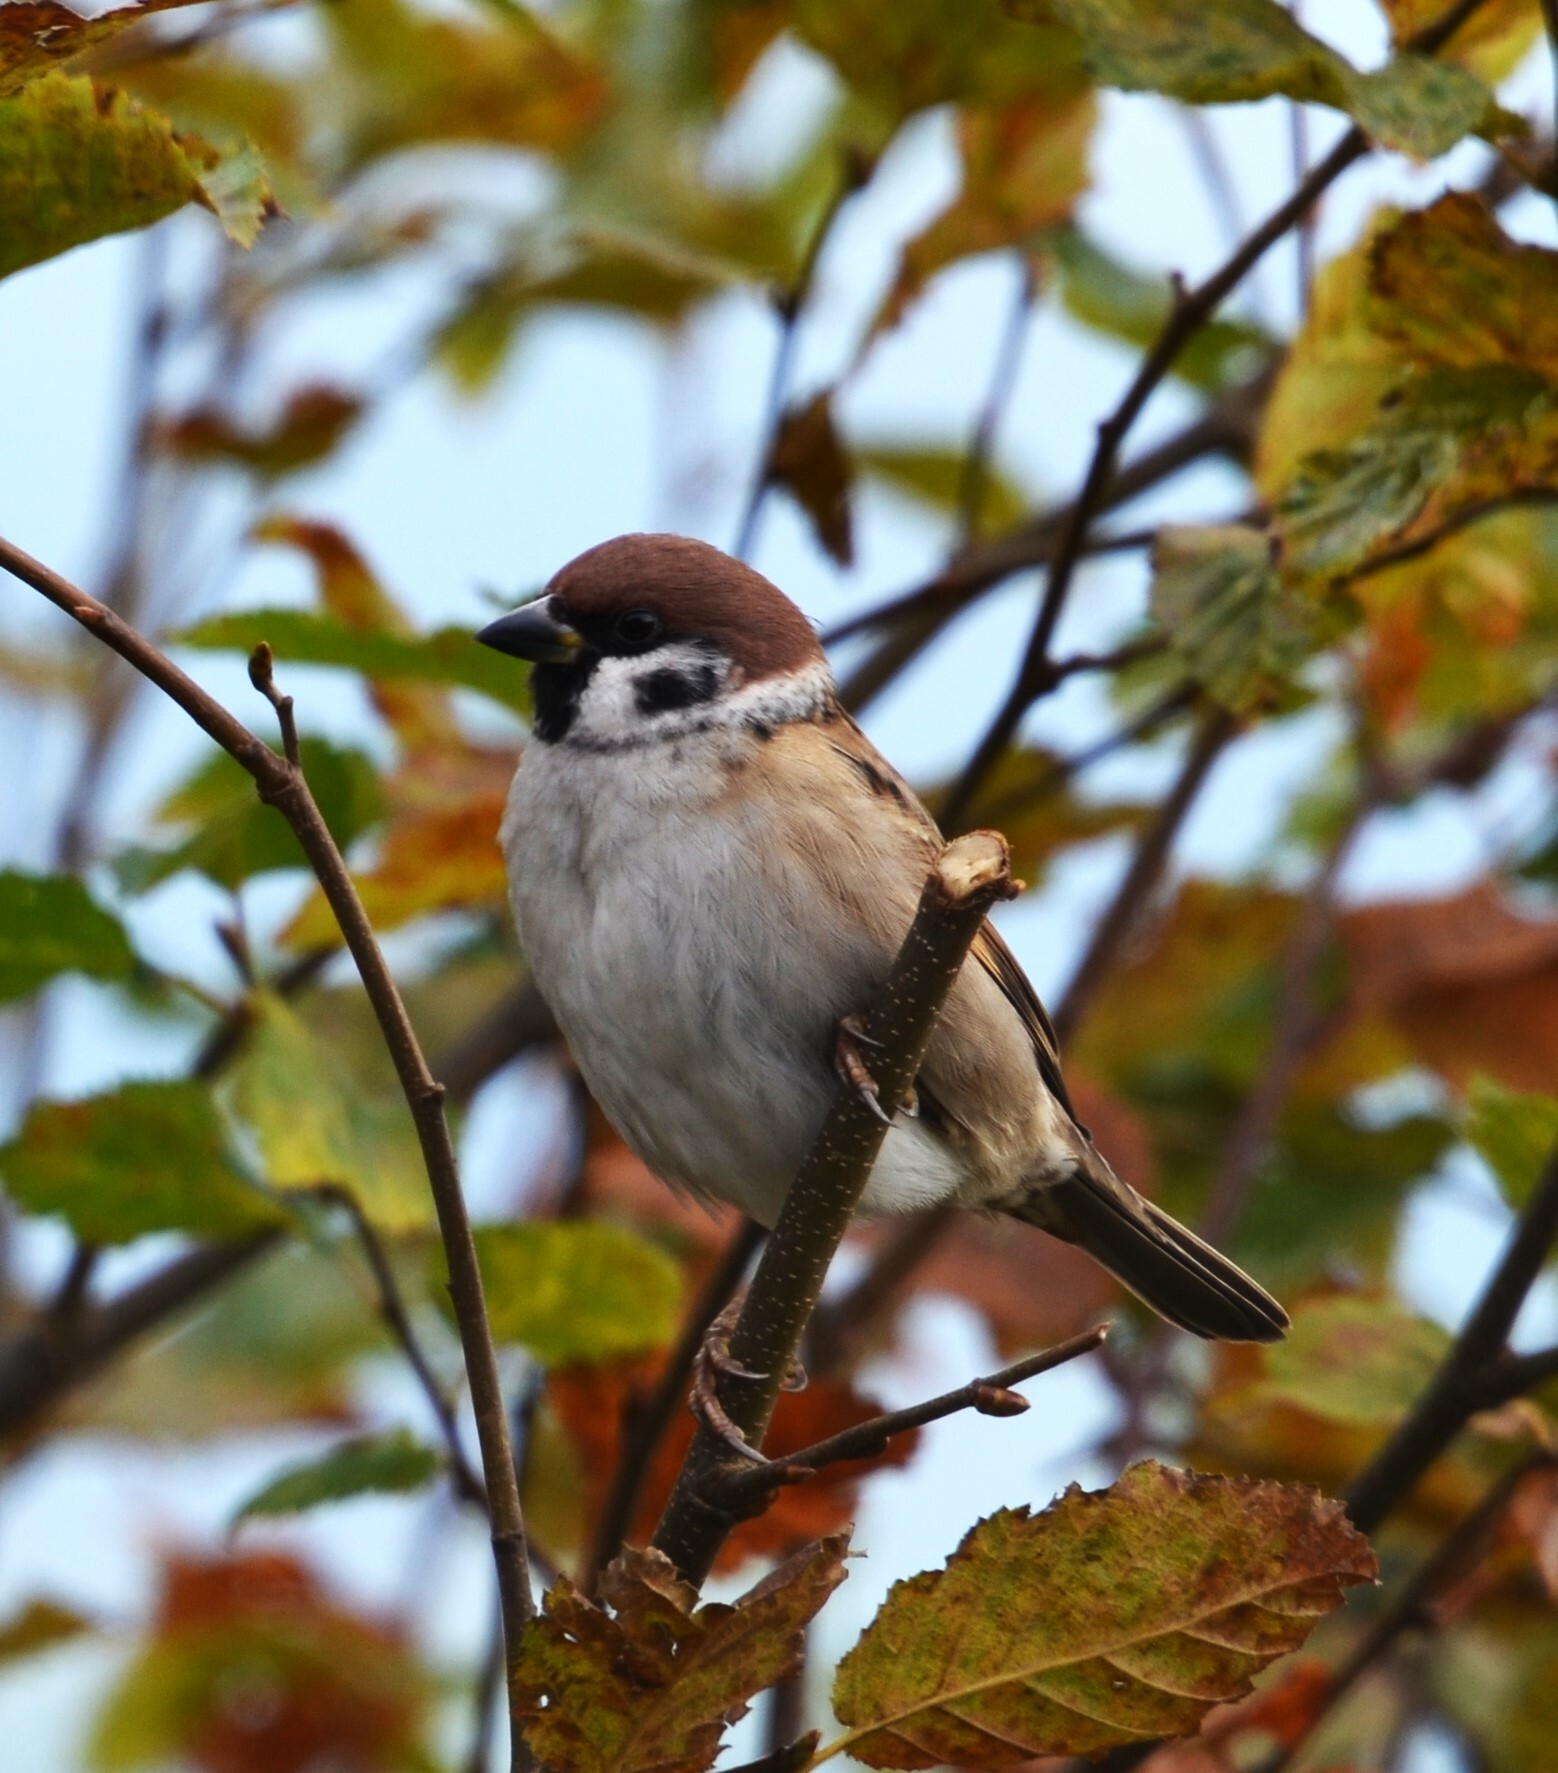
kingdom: Animalia
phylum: Chordata
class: Aves
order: Passeriformes
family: Passeridae
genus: Passer
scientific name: Passer montanus
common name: Eurasian tree sparrow
